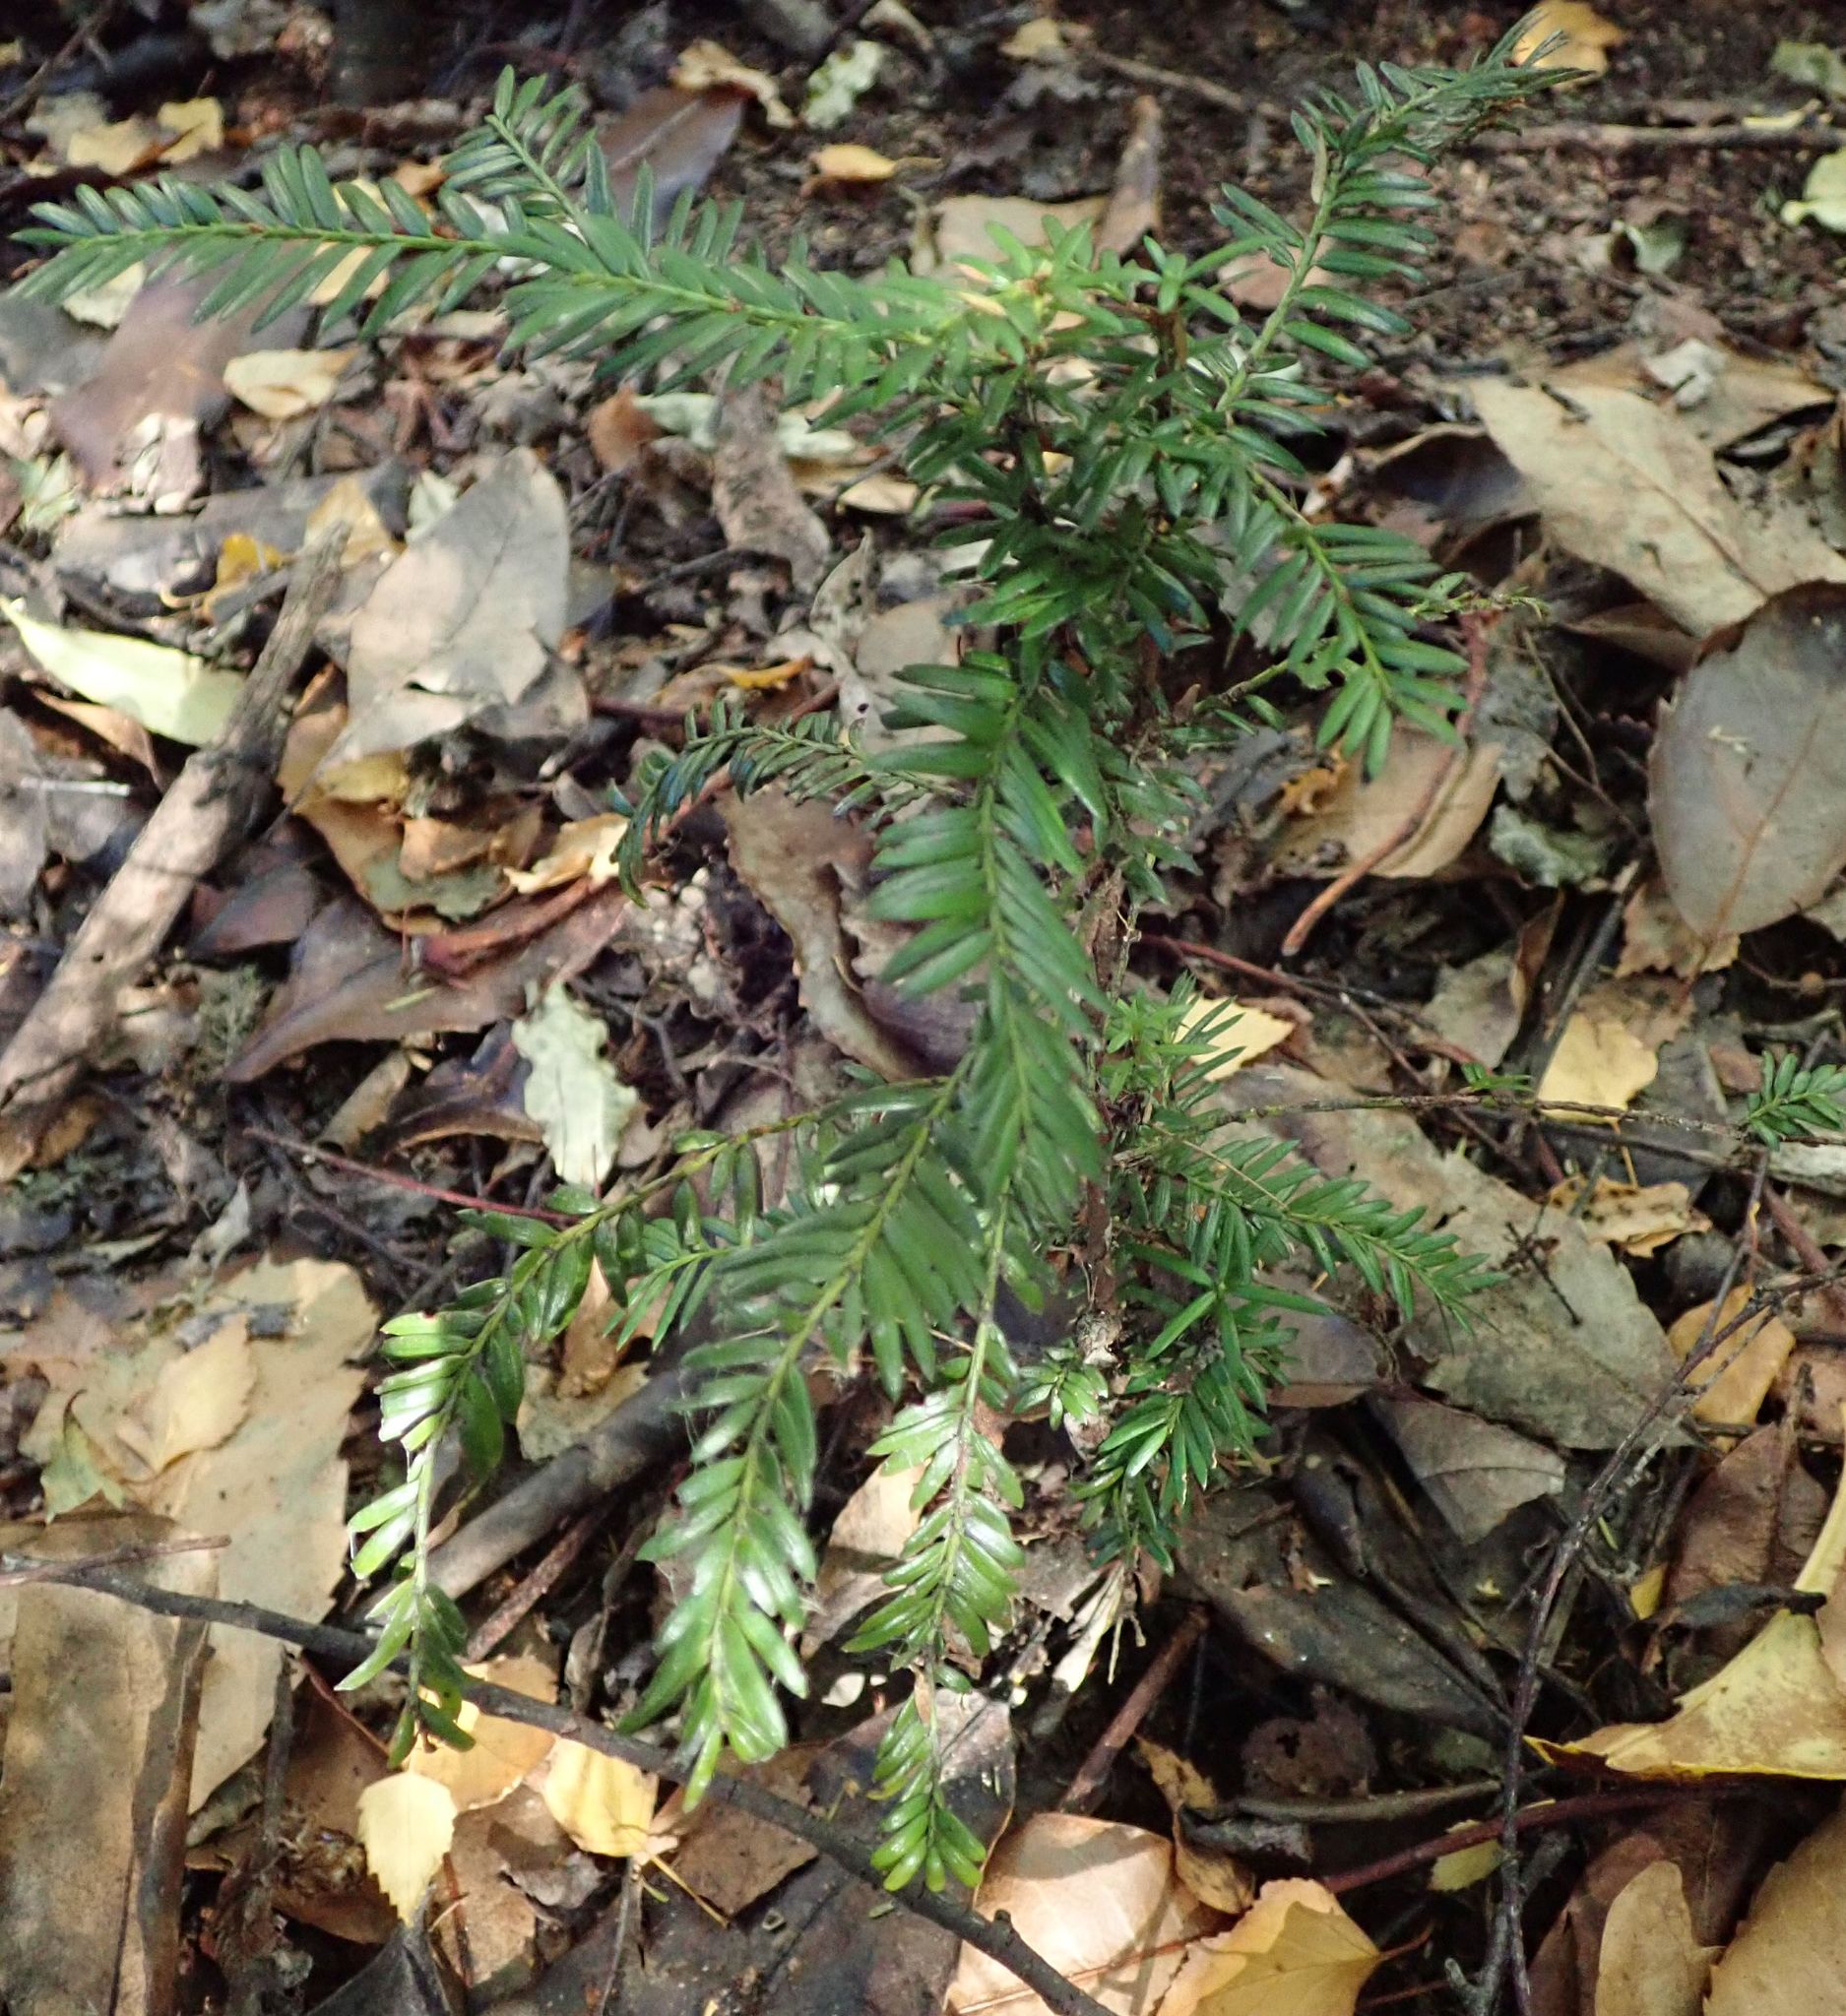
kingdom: Plantae
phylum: Tracheophyta
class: Pinopsida
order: Pinales
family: Taxaceae
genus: Taxus
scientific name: Taxus baccata
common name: Yew
